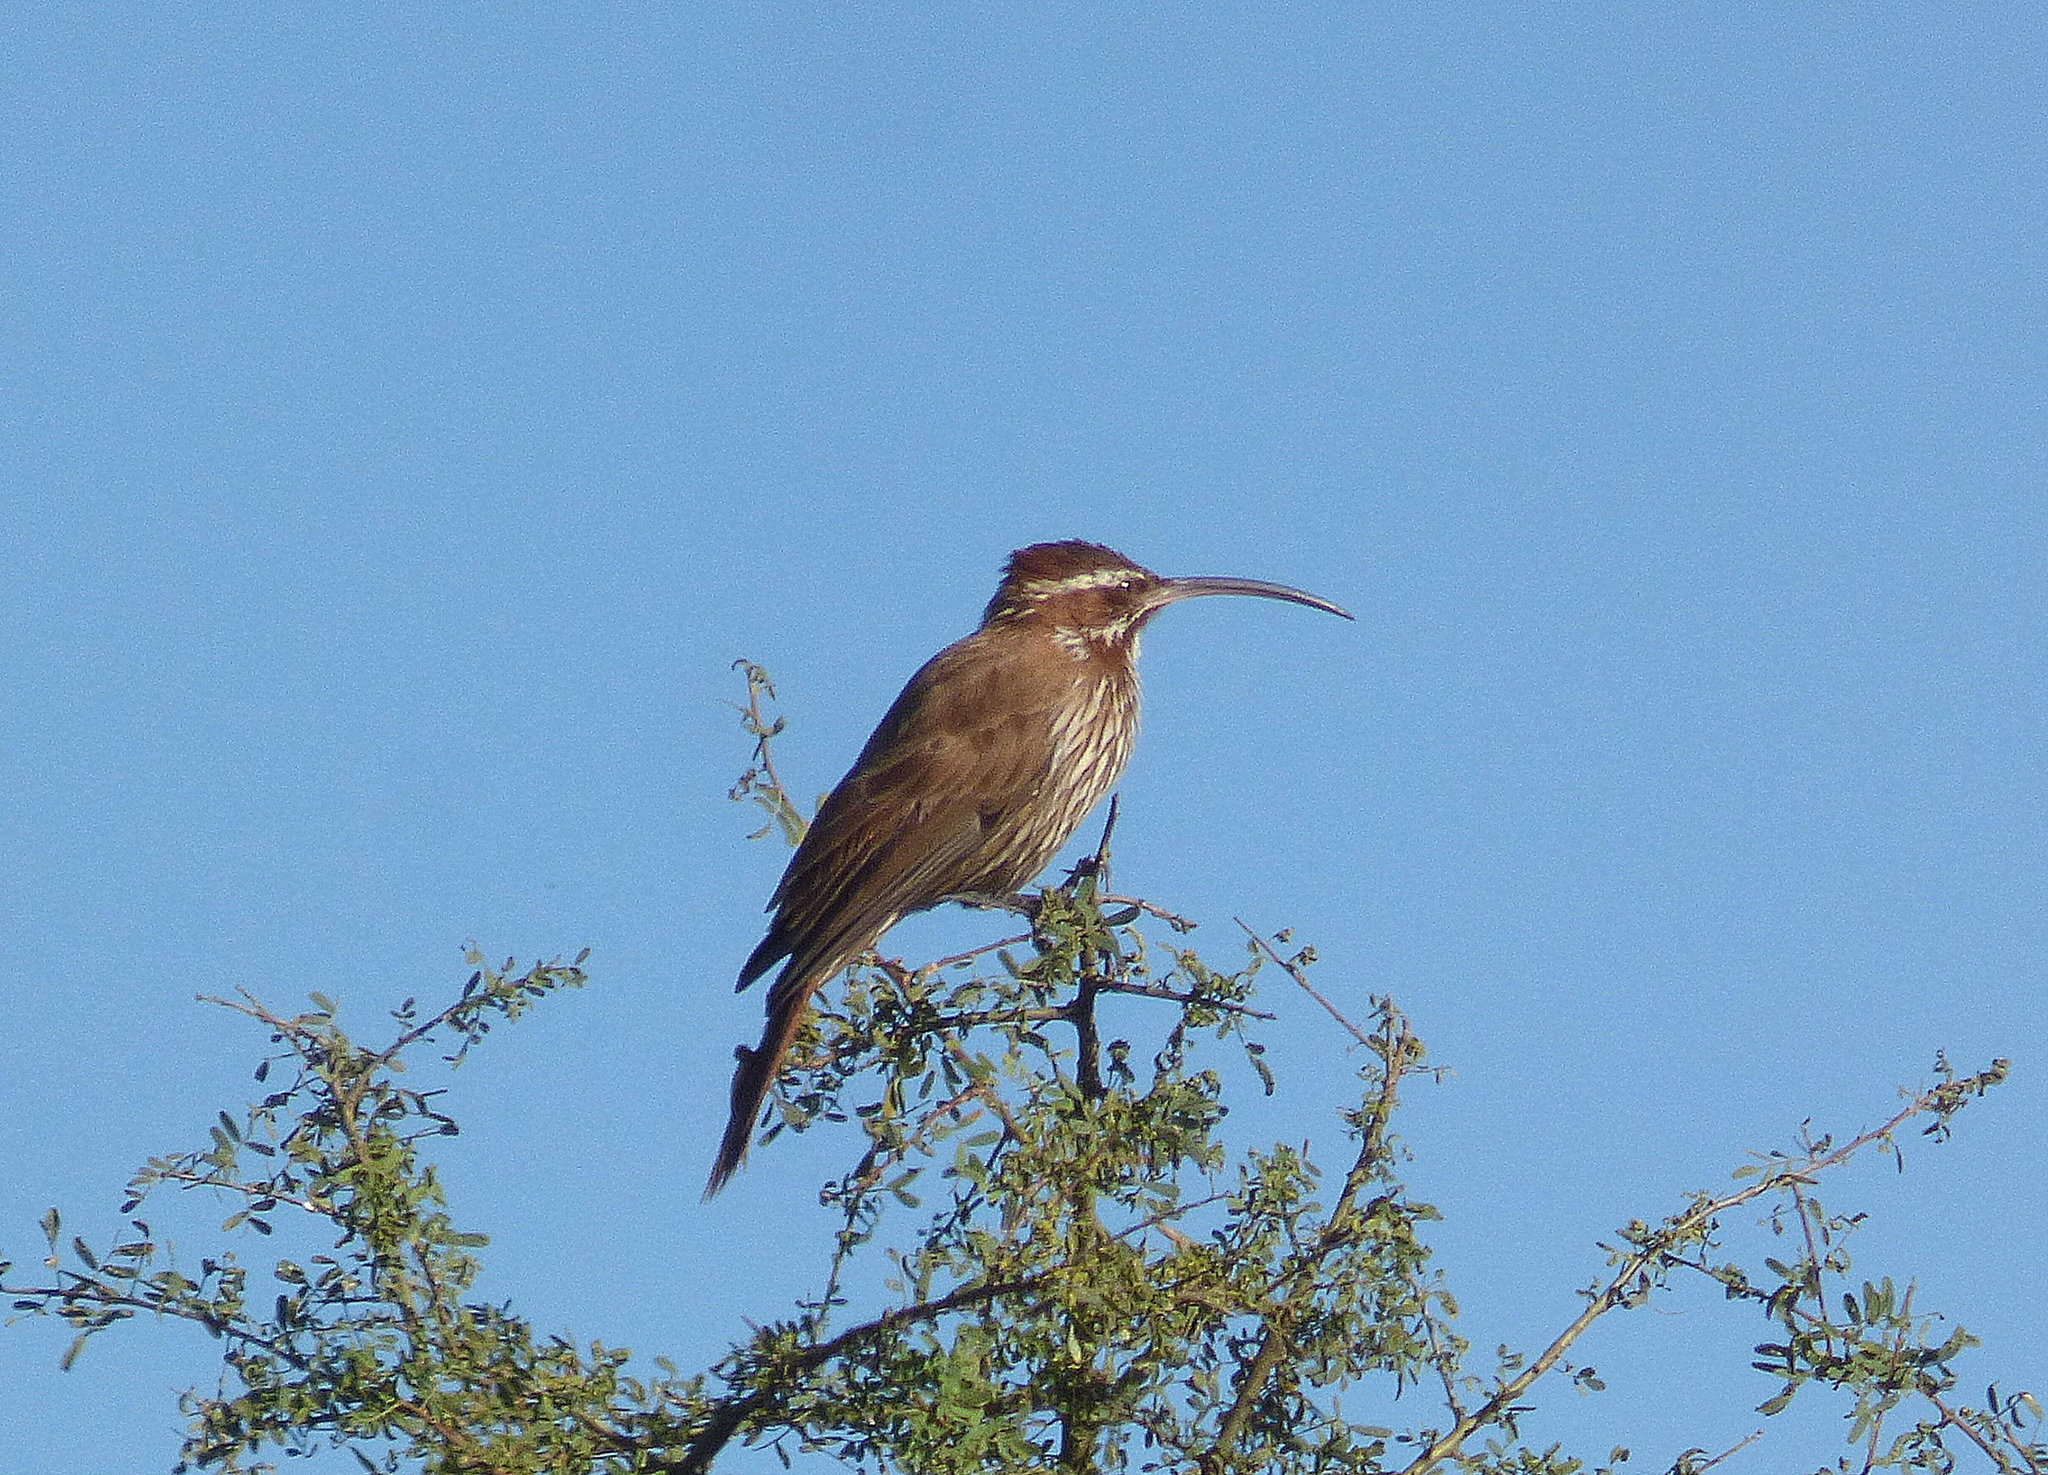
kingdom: Animalia
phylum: Chordata
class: Aves
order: Passeriformes
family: Furnariidae
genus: Drymornis
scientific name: Drymornis bridgesii
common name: Scimitar-billed woodcreeper
